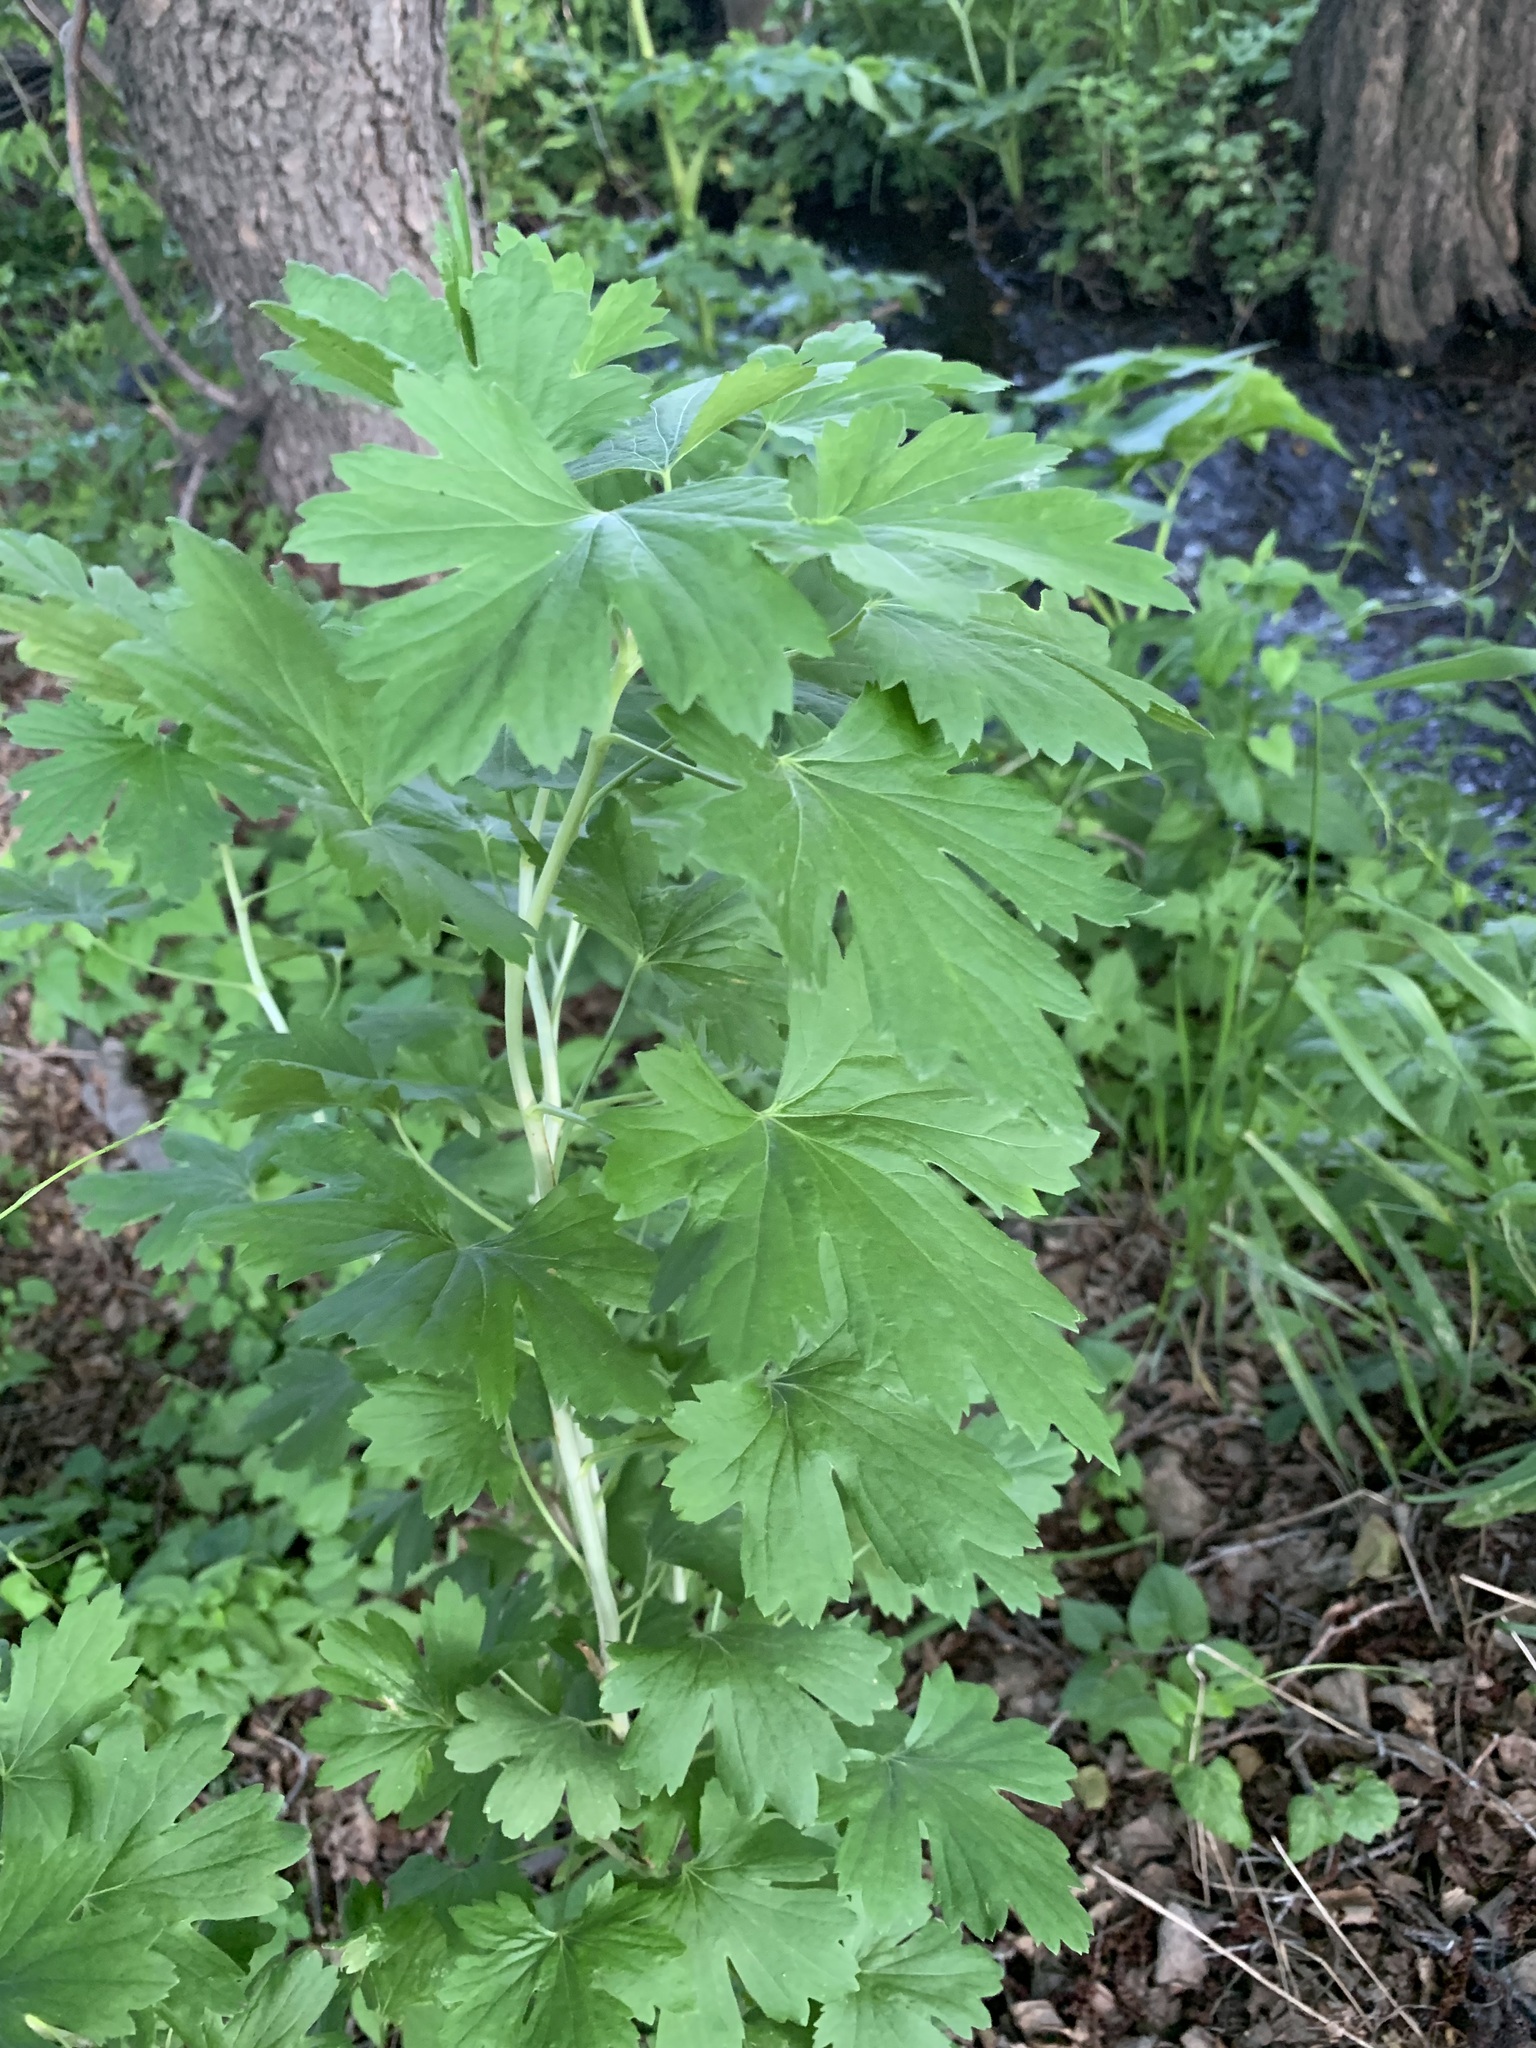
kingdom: Plantae
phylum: Tracheophyta
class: Magnoliopsida
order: Saxifragales
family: Grossulariaceae
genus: Ribes
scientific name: Ribes aureum
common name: Golden currant
